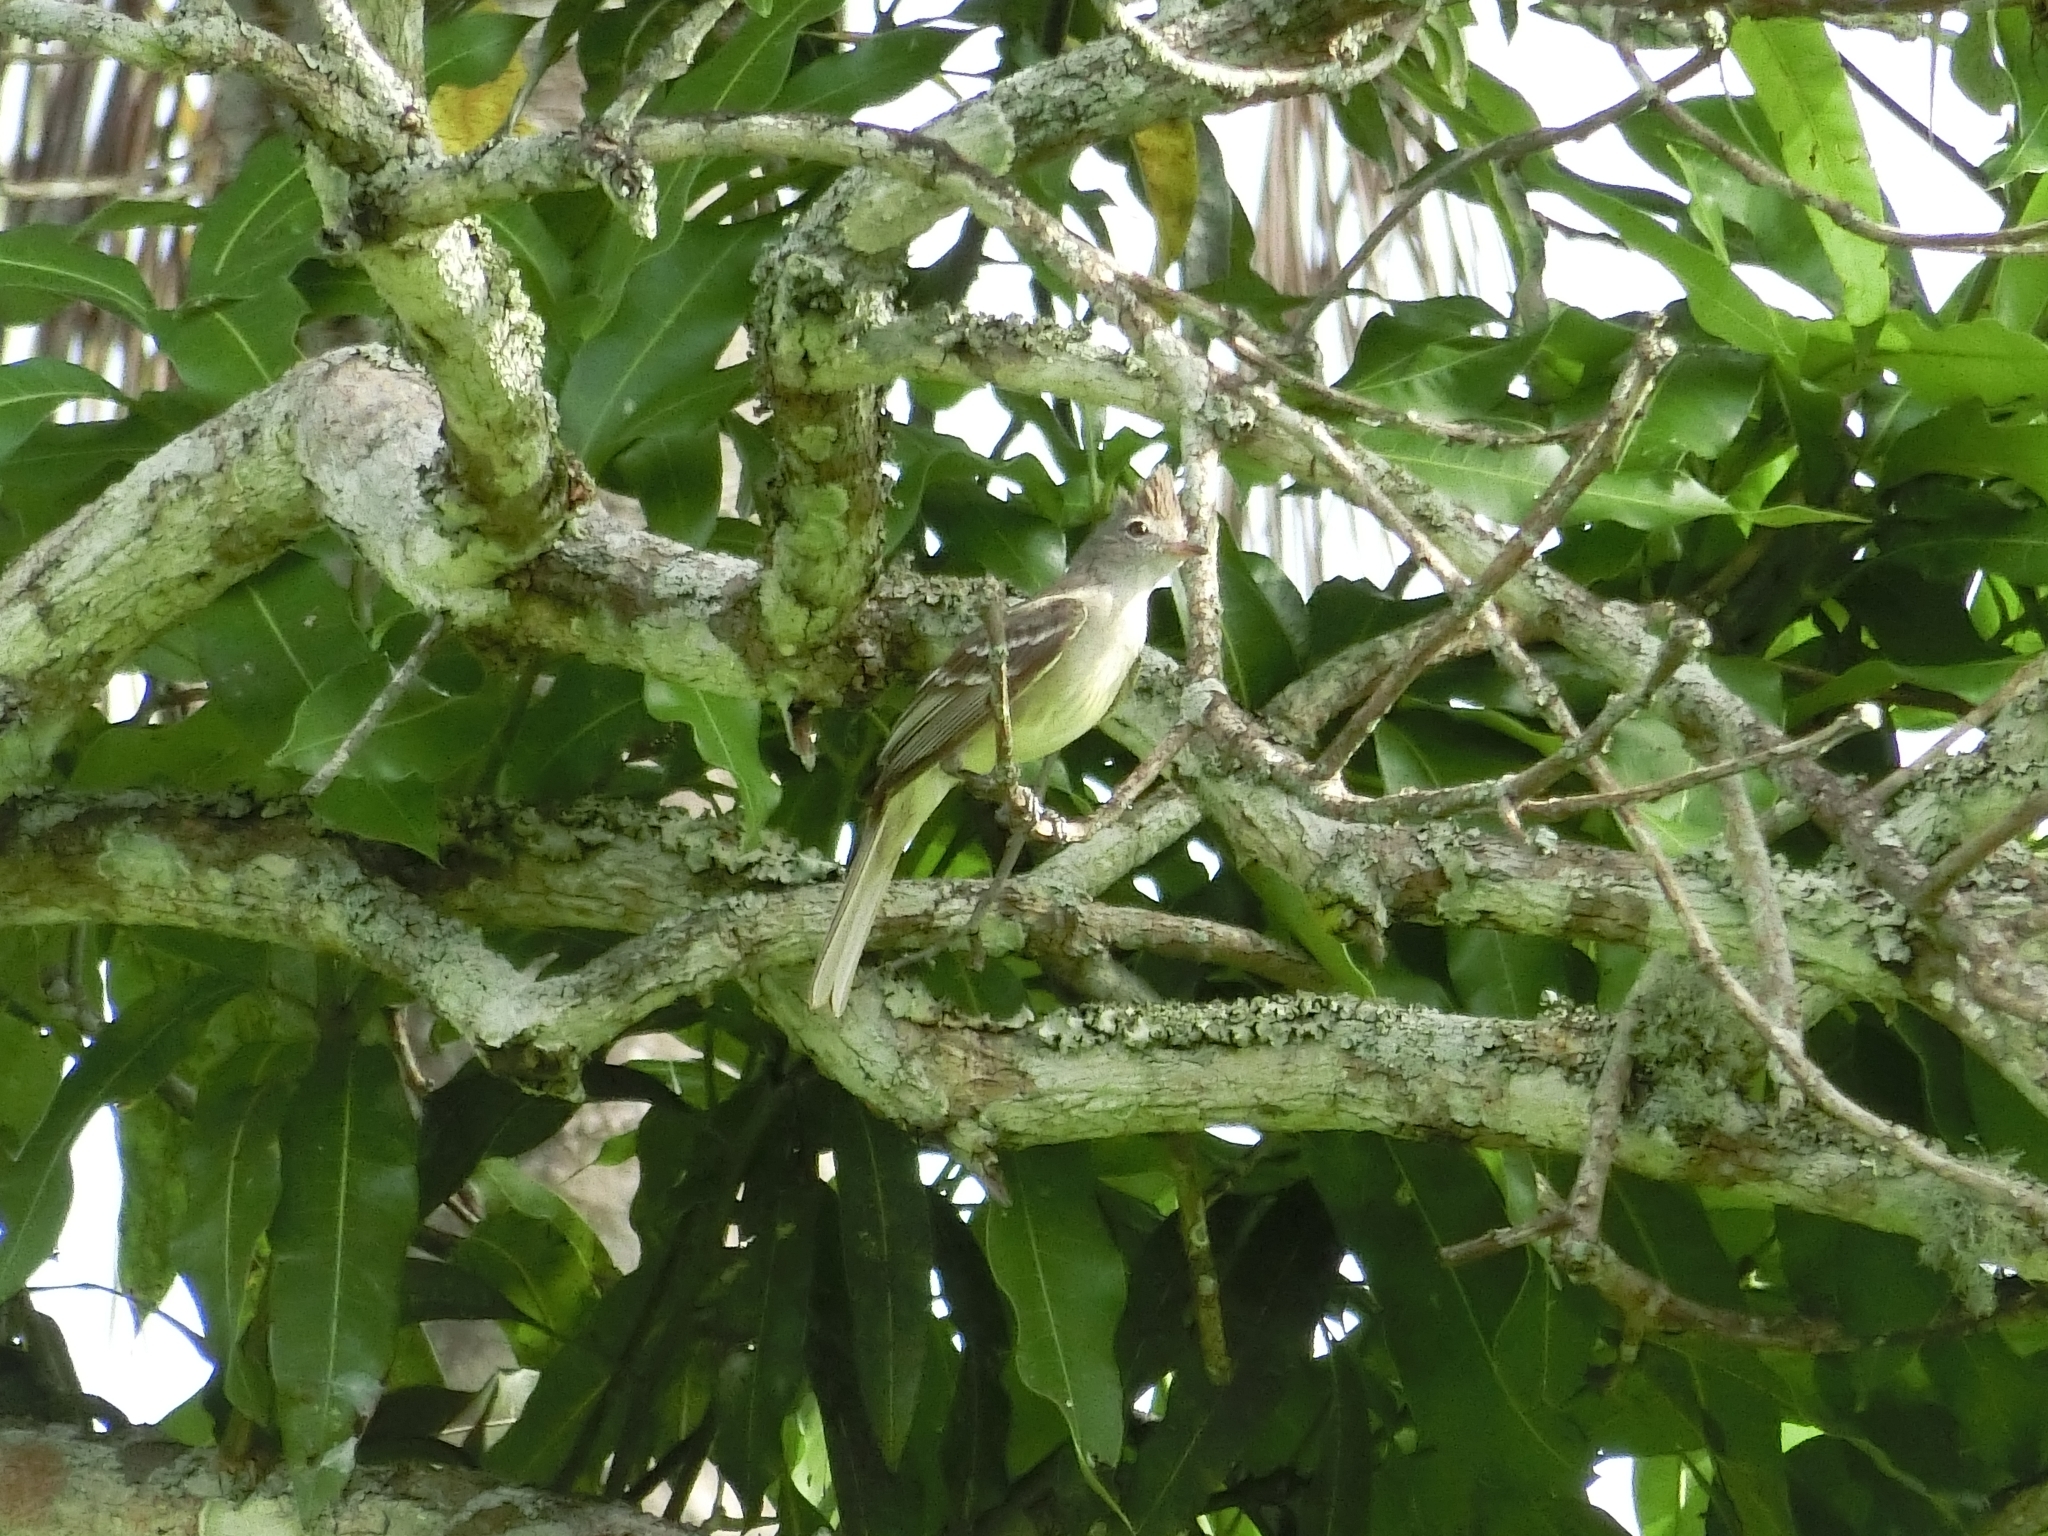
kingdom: Animalia
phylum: Chordata
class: Aves
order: Passeriformes
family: Tyrannidae
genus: Elaenia
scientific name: Elaenia flavogaster
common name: Yellow-bellied elaenia
